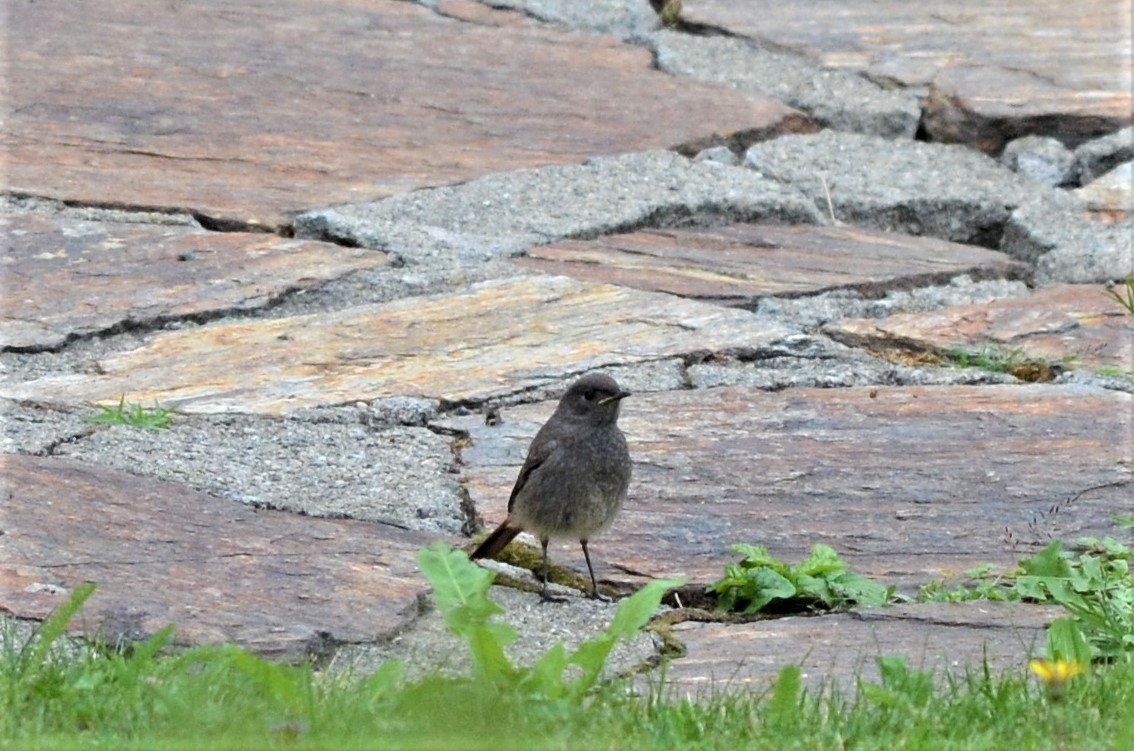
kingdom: Animalia
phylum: Chordata
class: Aves
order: Passeriformes
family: Muscicapidae
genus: Phoenicurus
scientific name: Phoenicurus ochruros
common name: Black redstart
